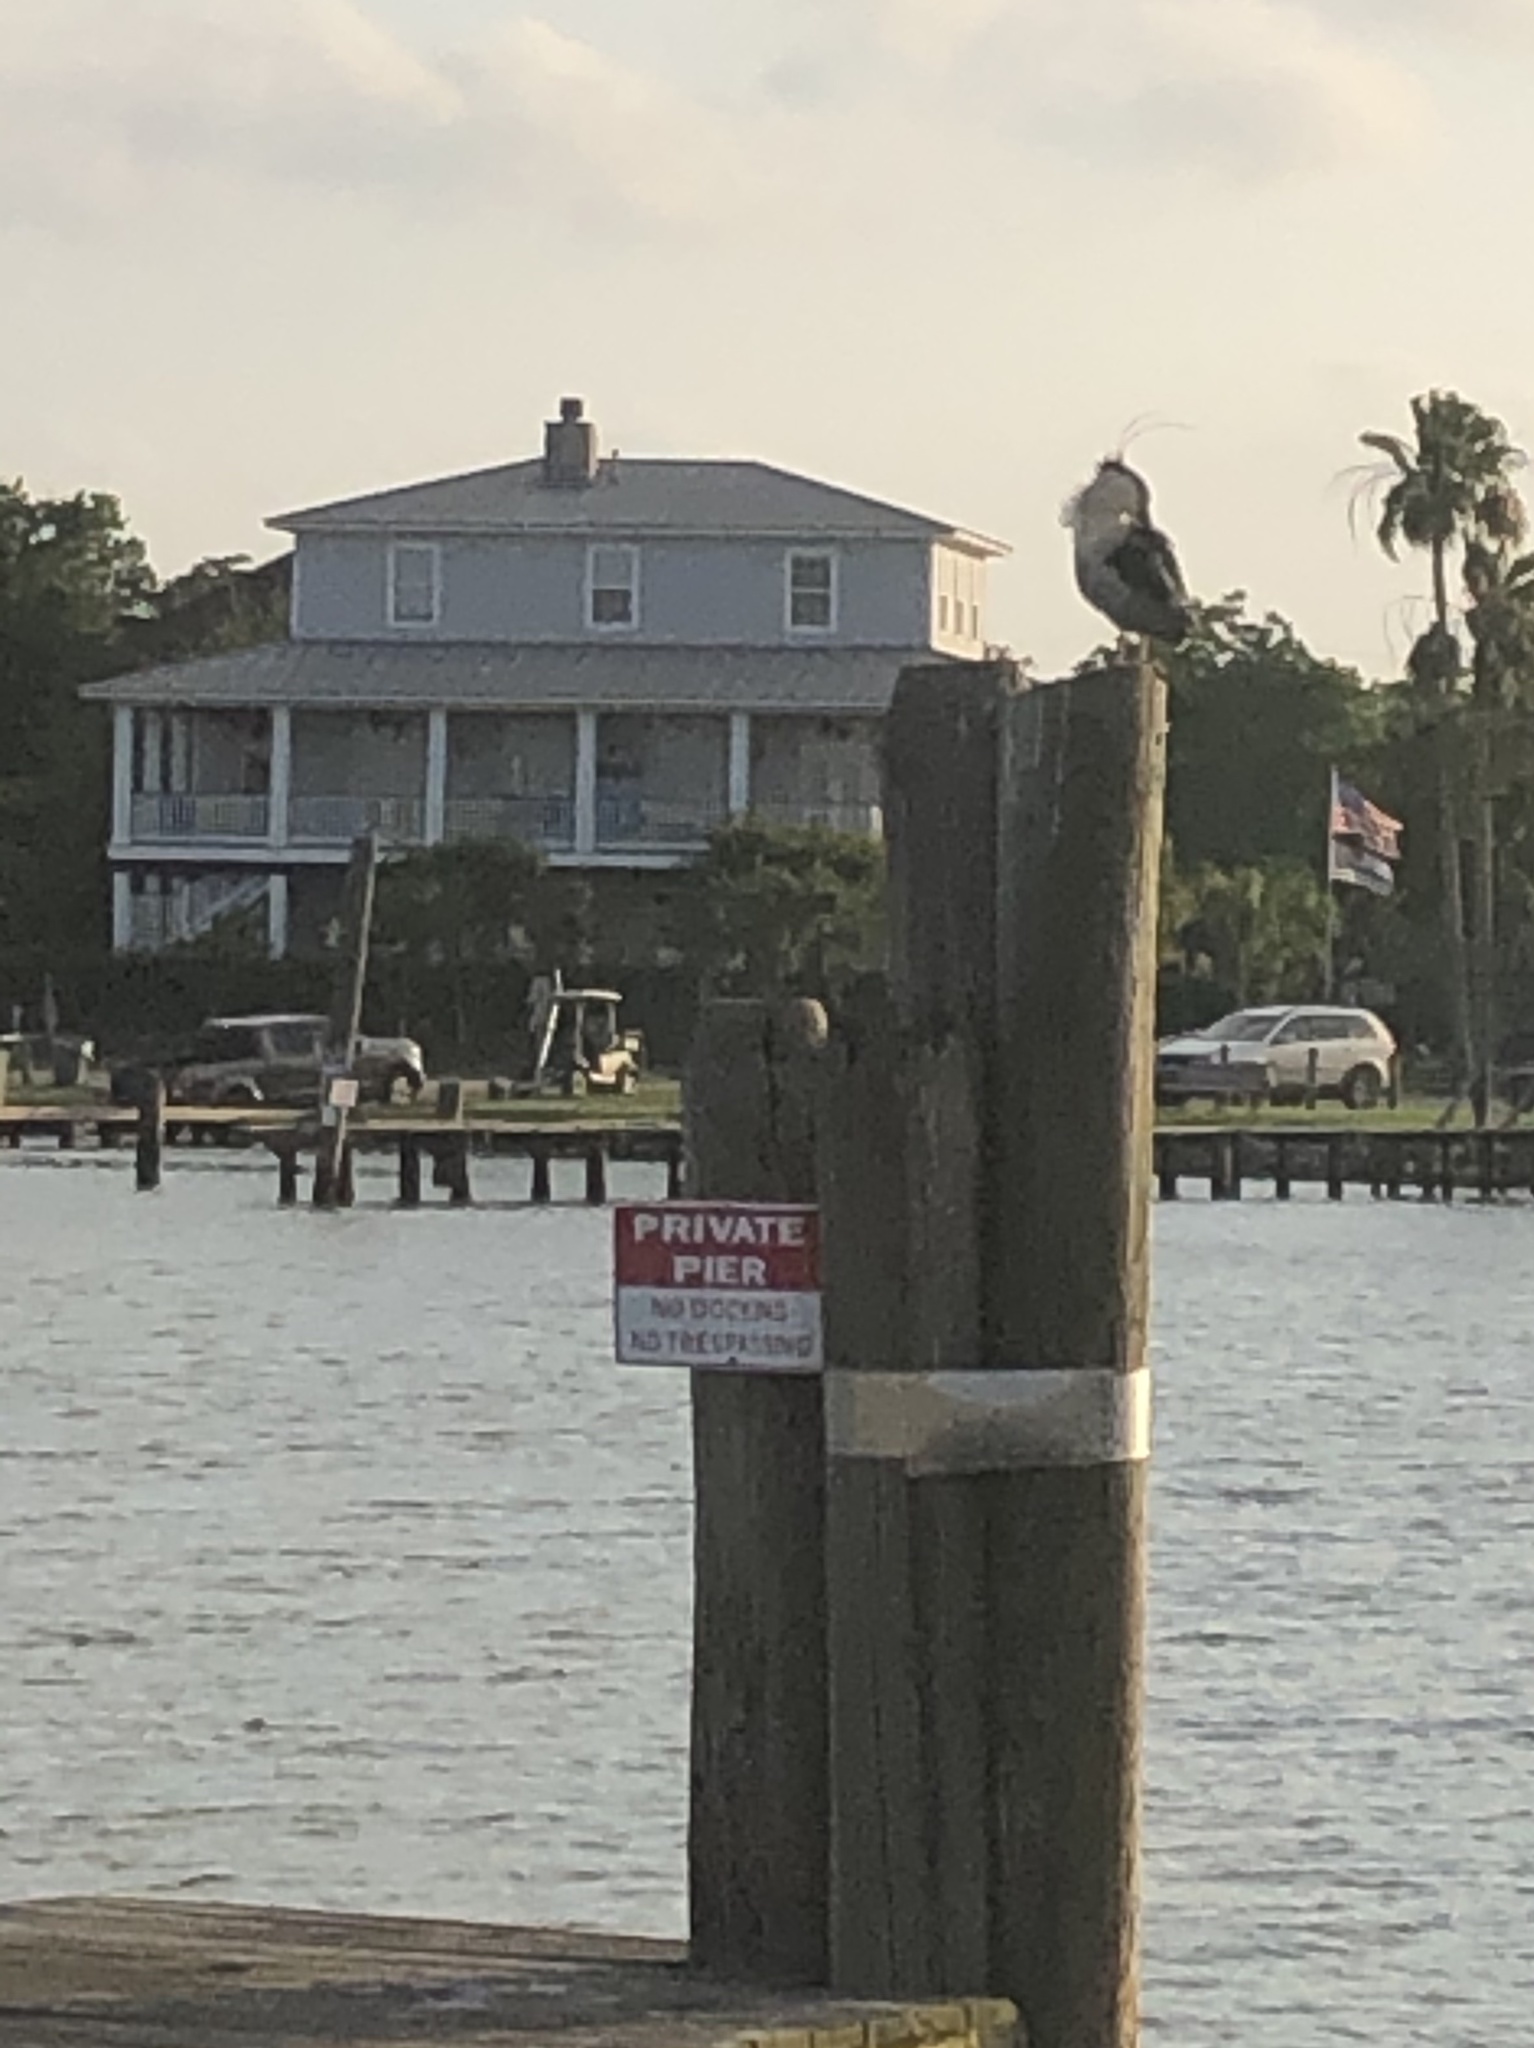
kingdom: Animalia
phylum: Chordata
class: Aves
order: Pelecaniformes
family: Ardeidae
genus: Nycticorax
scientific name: Nycticorax nycticorax
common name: Black-crowned night heron
